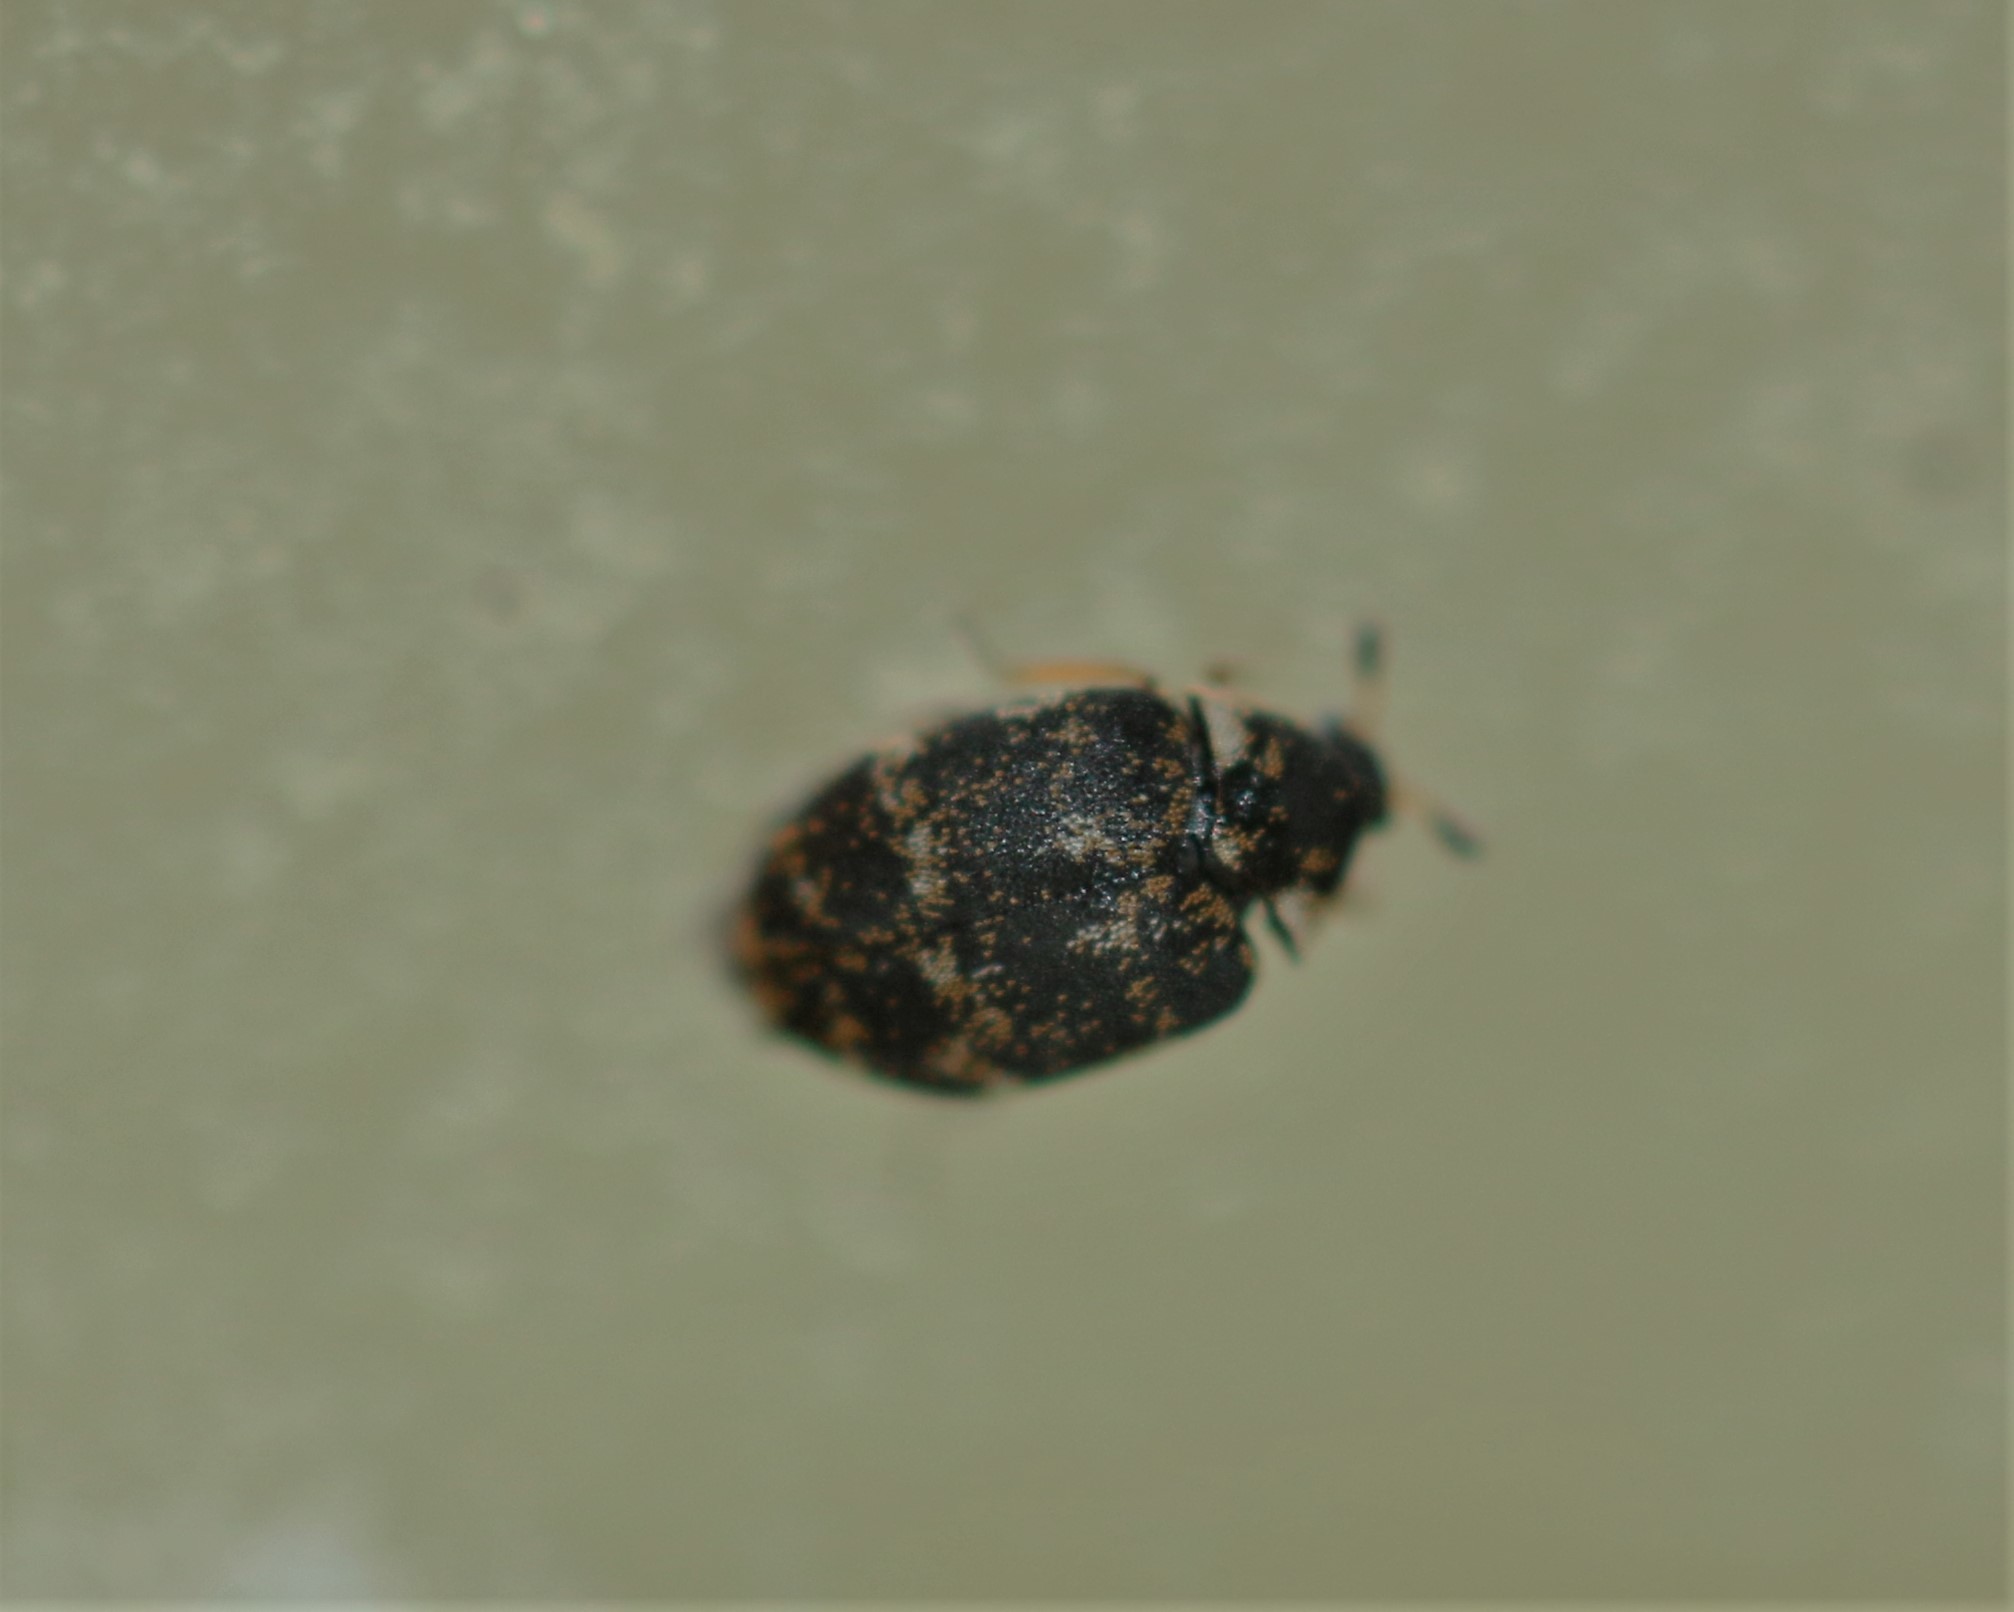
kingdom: Animalia
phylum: Arthropoda
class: Insecta
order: Coleoptera
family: Dermestidae
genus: Anthrenus
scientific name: Anthrenus museorum
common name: Museum beetle
